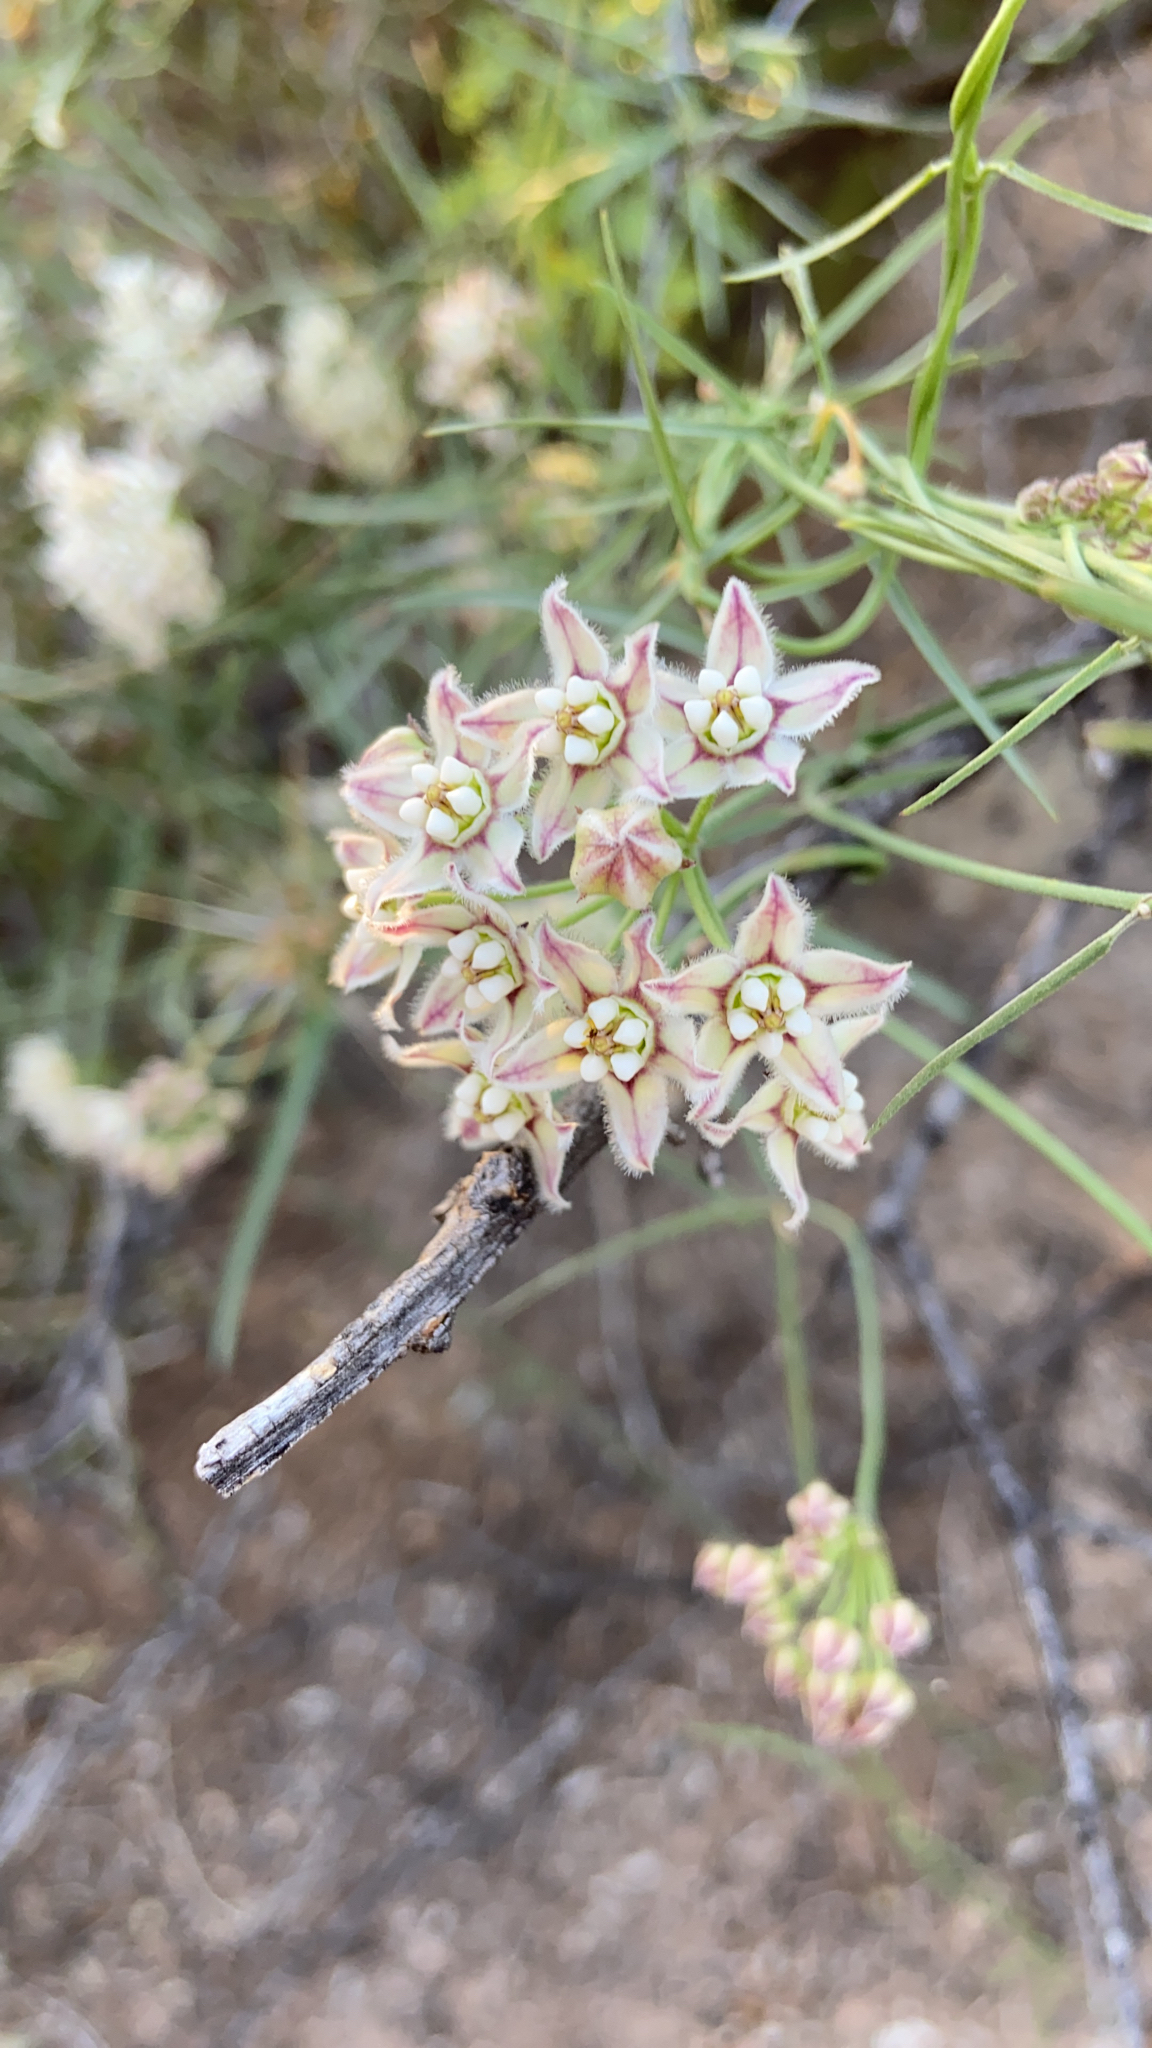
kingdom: Plantae
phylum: Tracheophyta
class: Magnoliopsida
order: Gentianales
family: Apocynaceae
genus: Funastrum
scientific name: Funastrum heterophyllum
